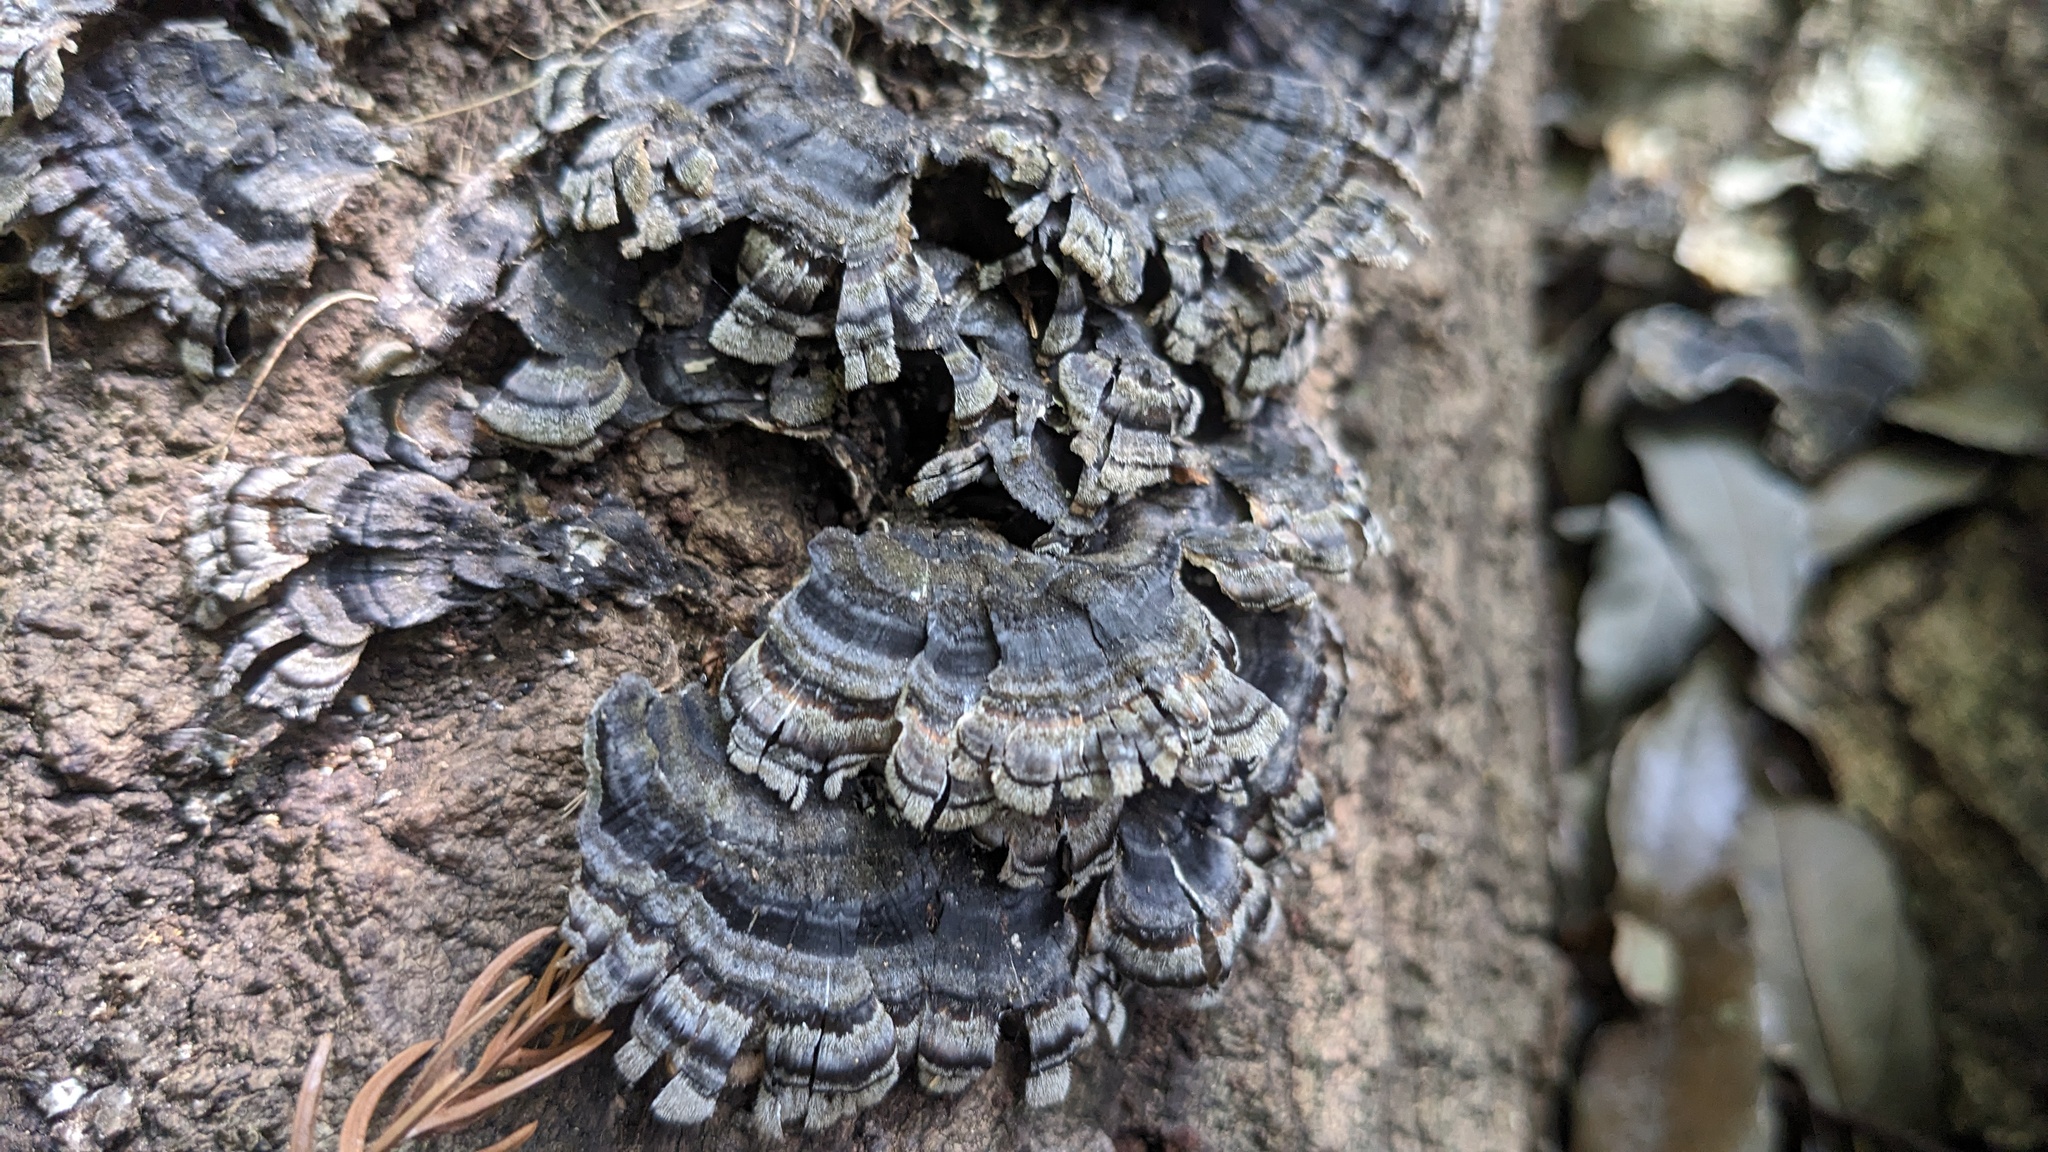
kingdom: Fungi
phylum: Basidiomycota
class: Agaricomycetes
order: Polyporales
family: Polyporaceae
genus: Trametes
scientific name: Trametes versicolor
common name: Turkeytail
